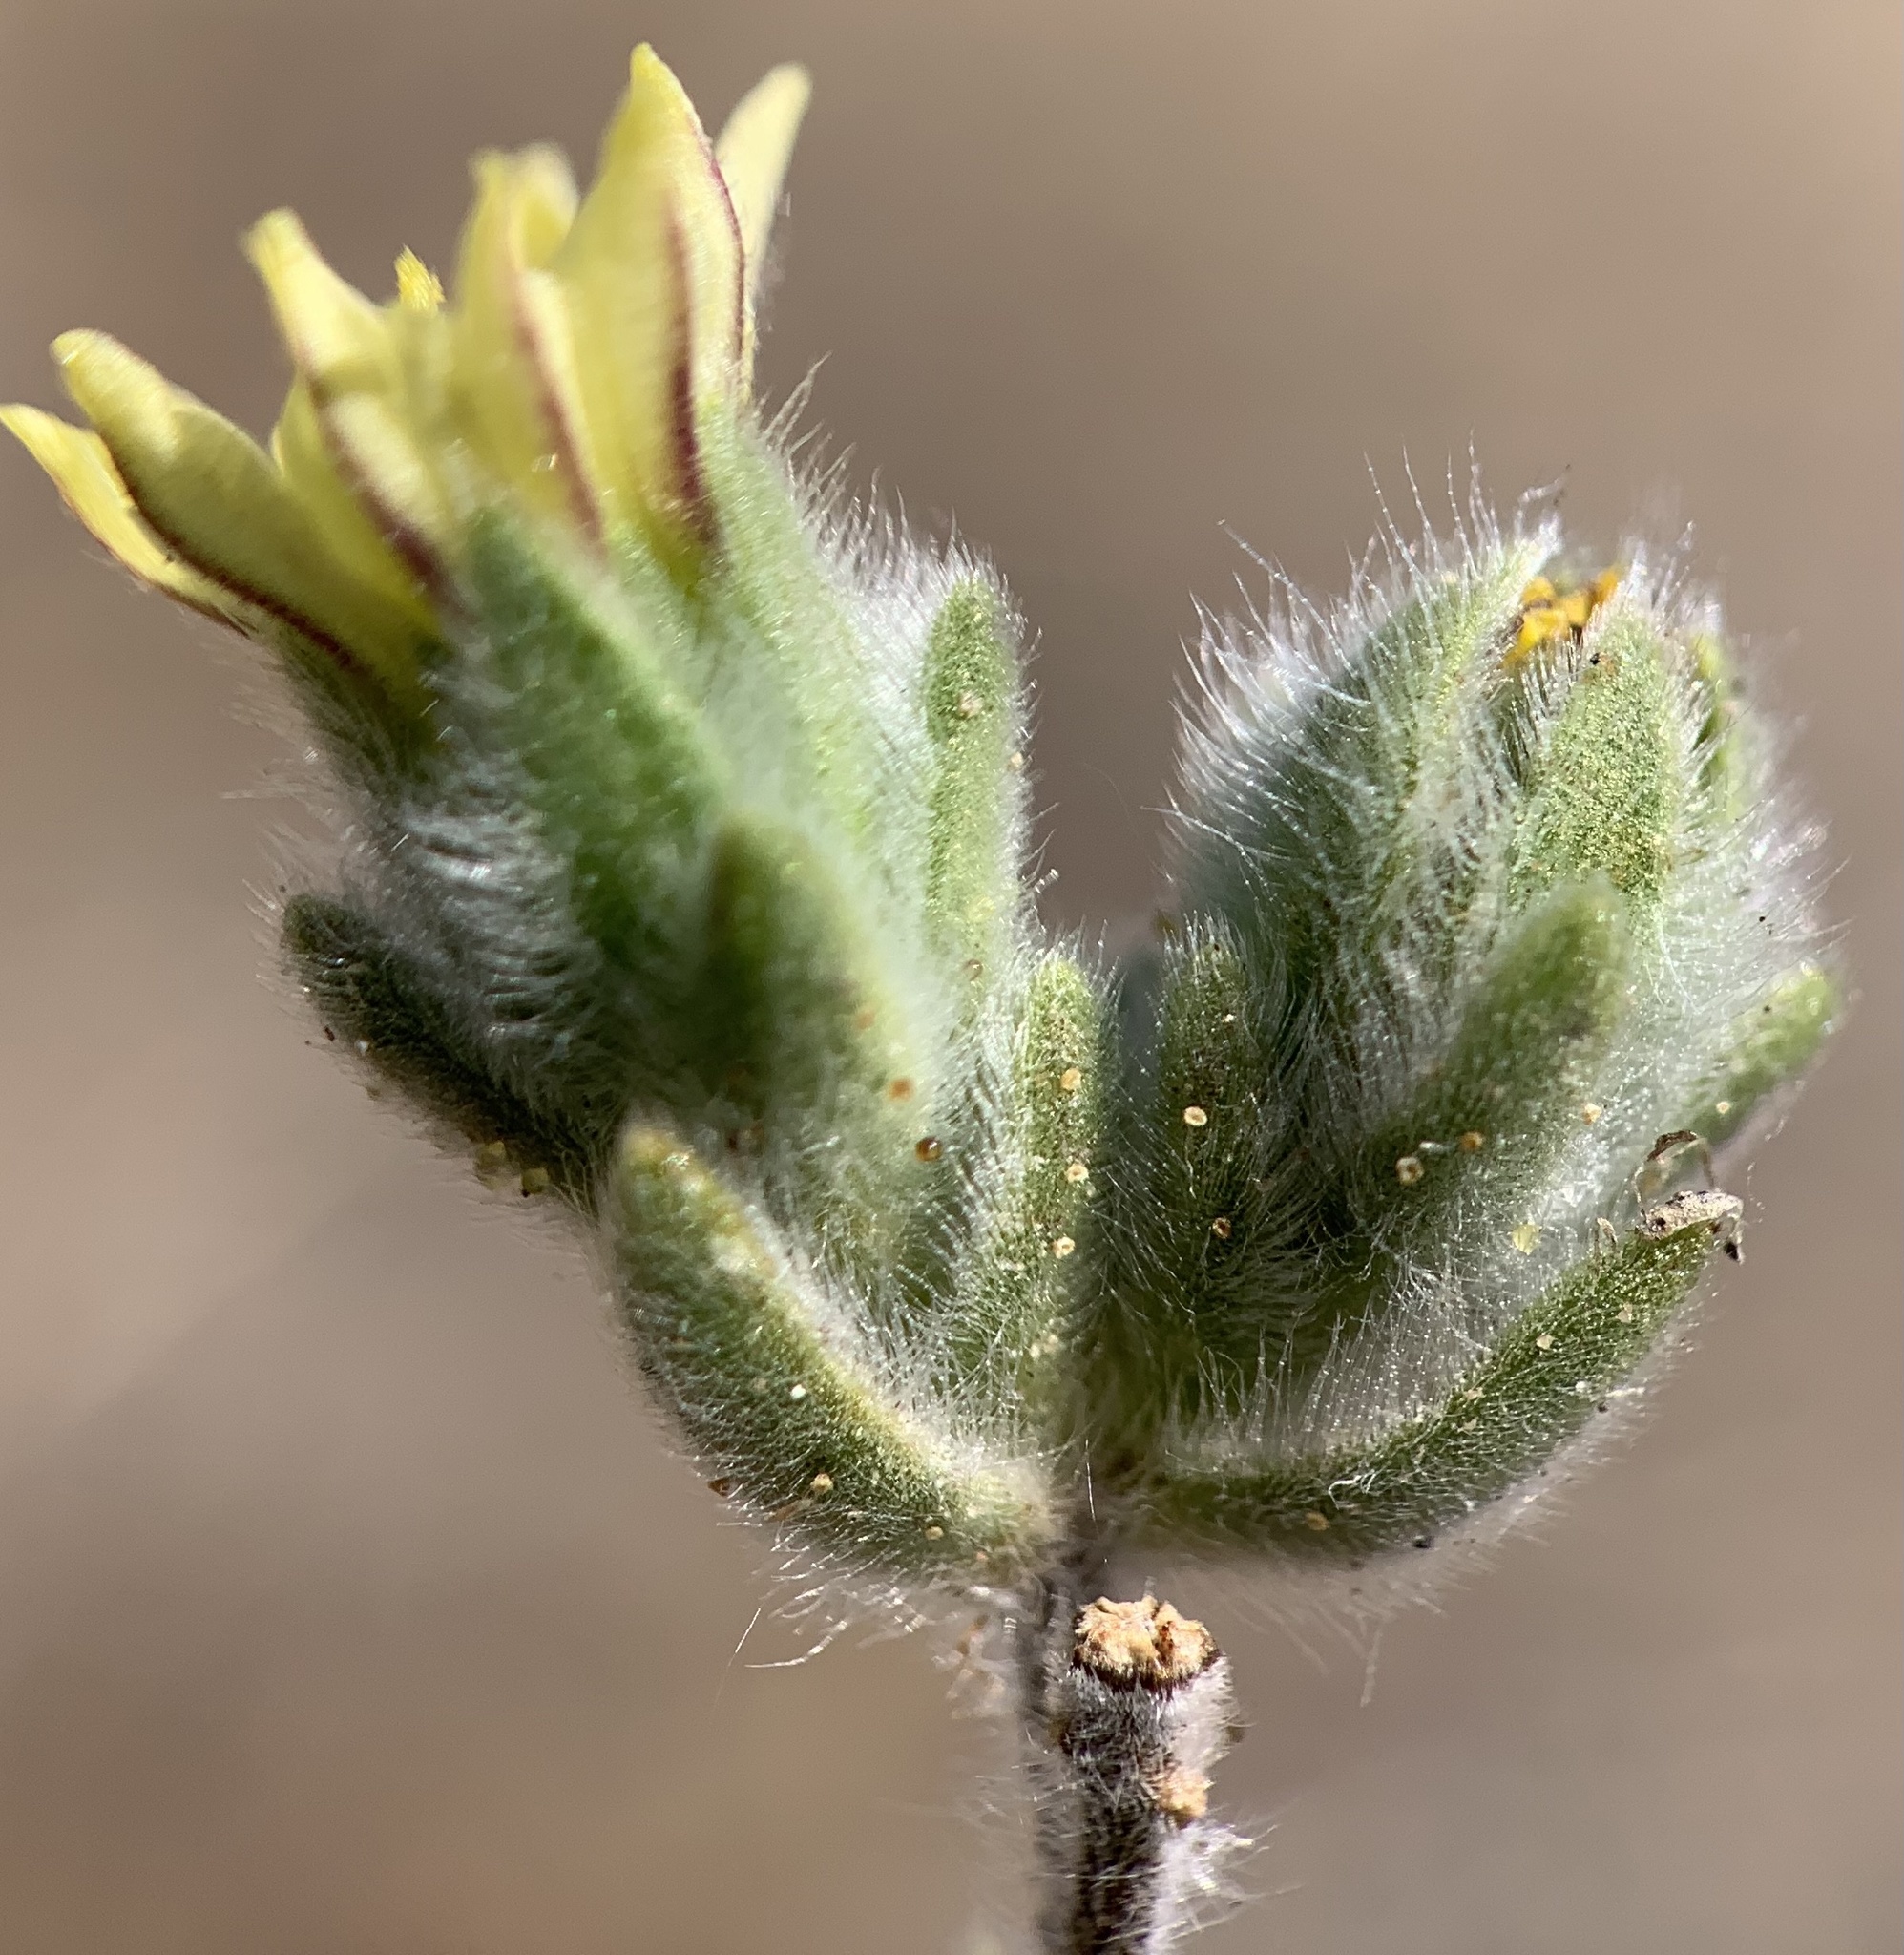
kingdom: Plantae
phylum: Tracheophyta
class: Magnoliopsida
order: Asterales
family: Asteraceae
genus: Lagophylla
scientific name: Lagophylla ramosissima
